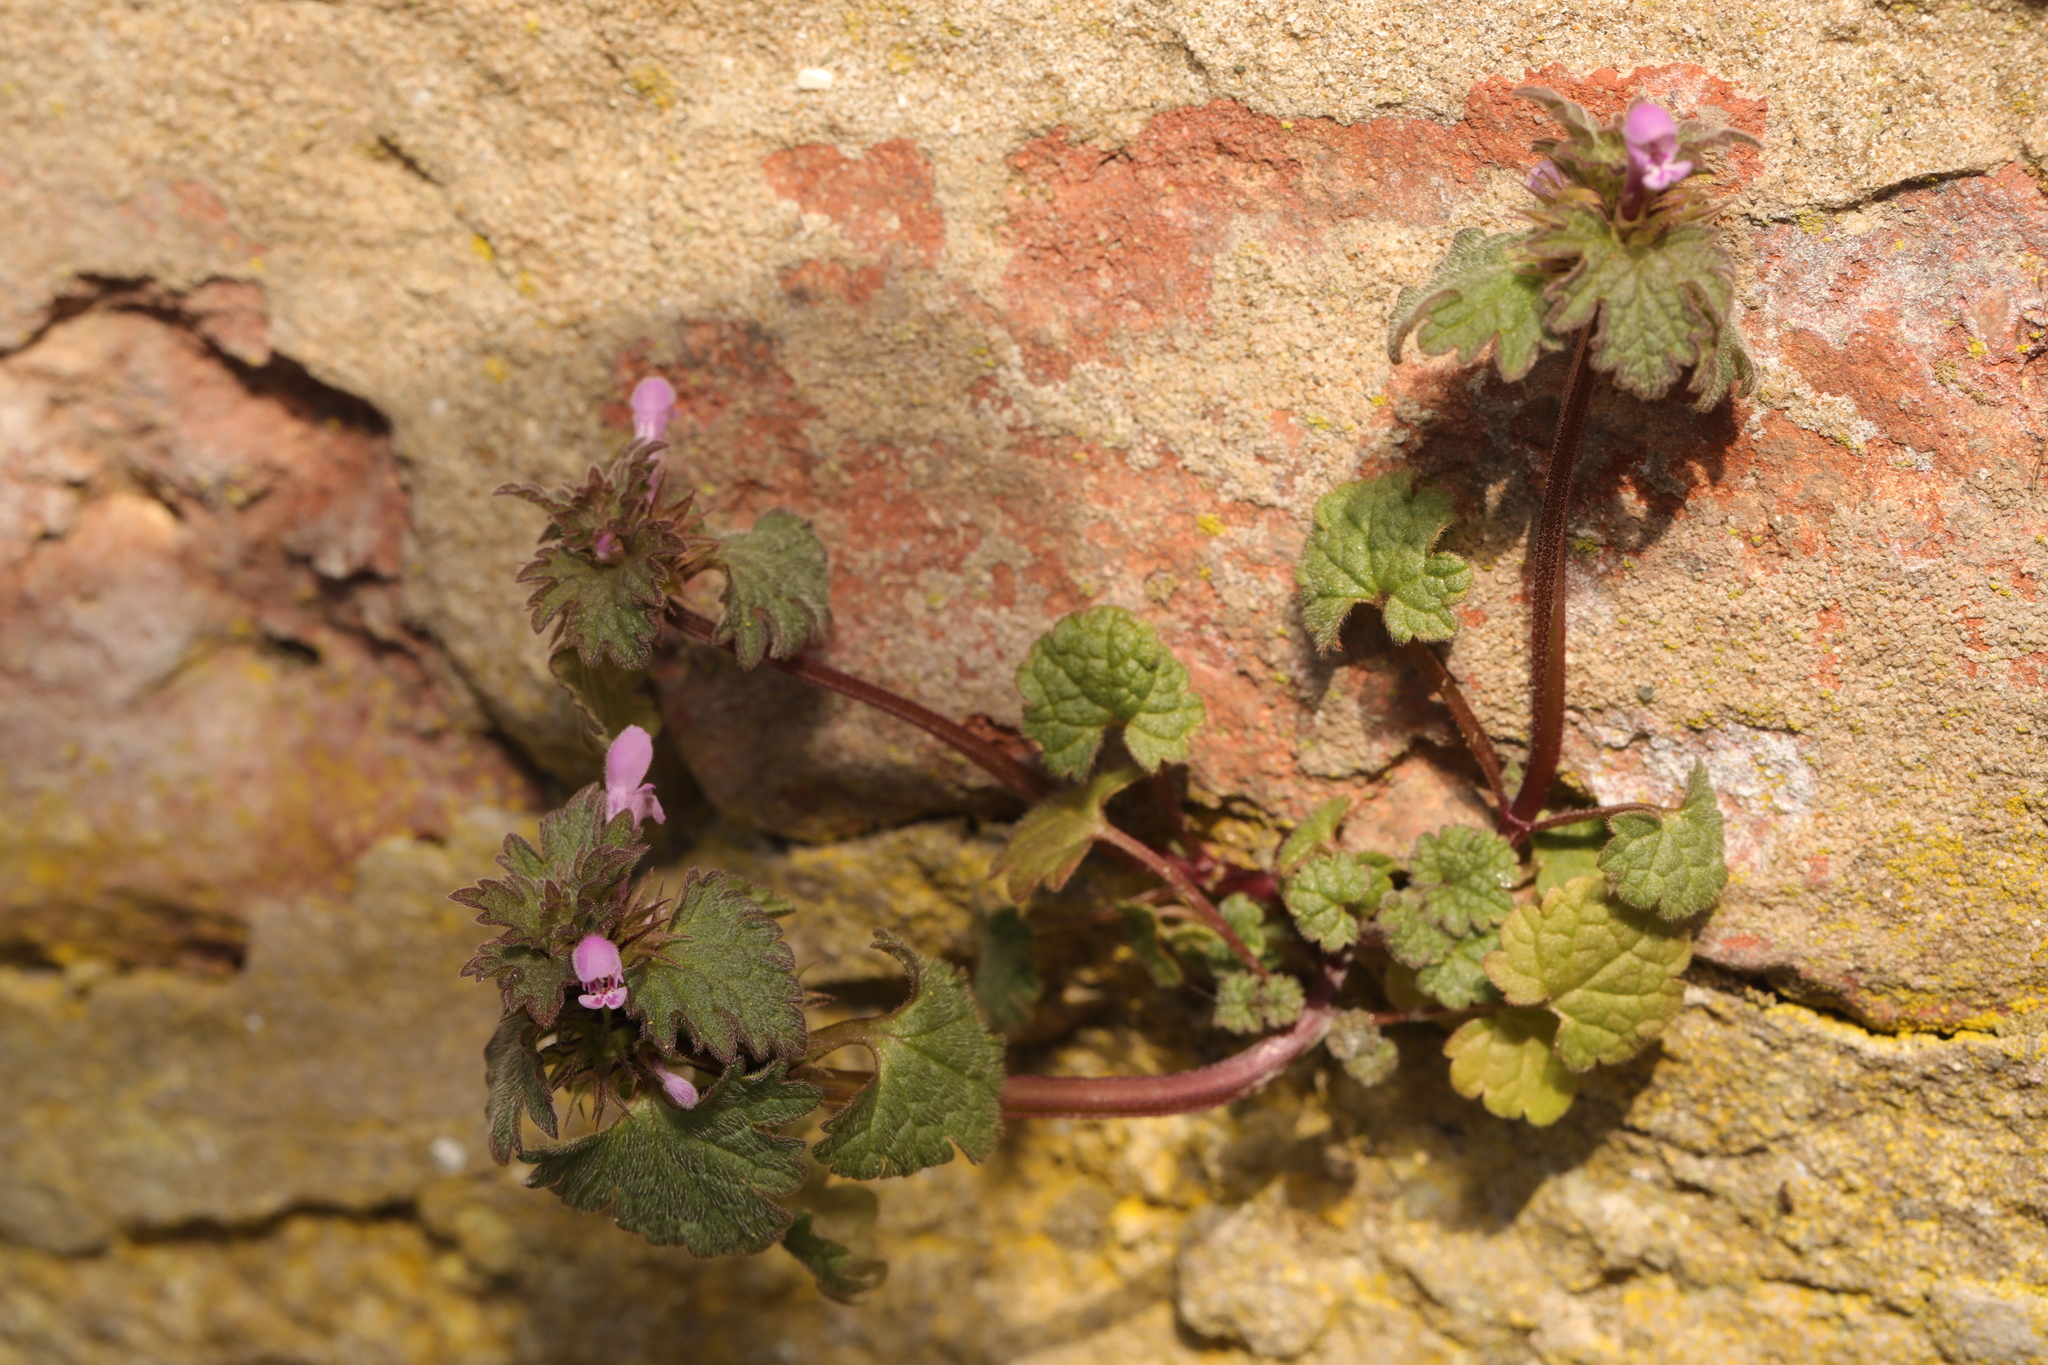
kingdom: Plantae
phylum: Tracheophyta
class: Magnoliopsida
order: Lamiales
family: Lamiaceae
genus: Lamium
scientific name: Lamium purpureum
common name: Red dead-nettle
